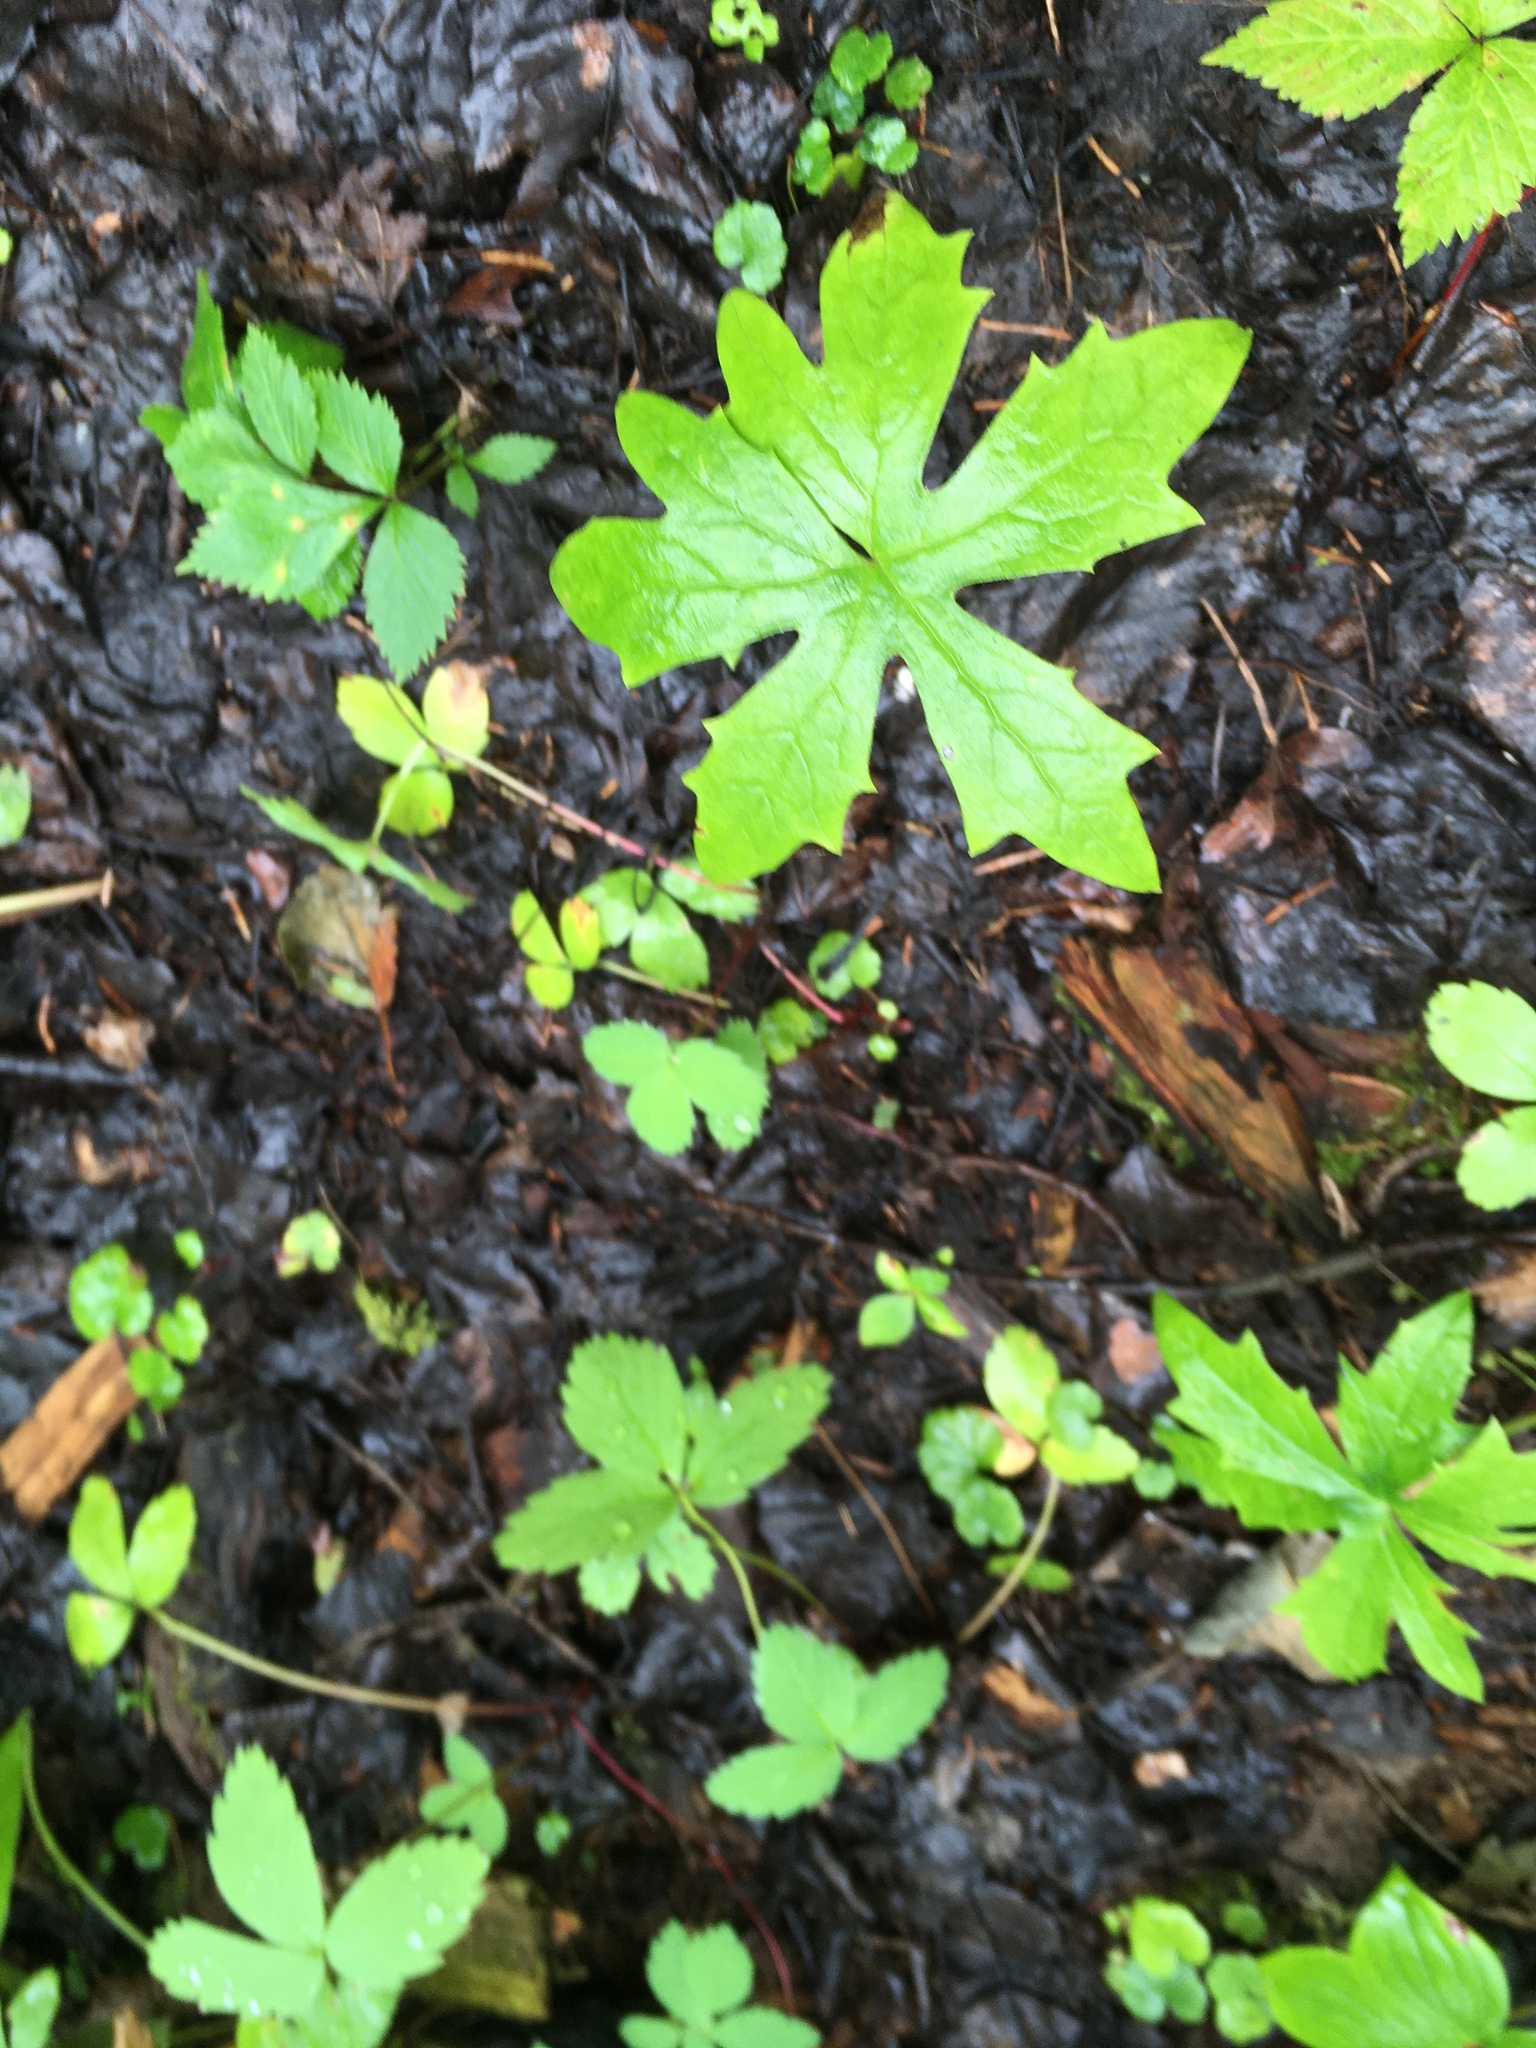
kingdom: Plantae
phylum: Tracheophyta
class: Magnoliopsida
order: Asterales
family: Asteraceae
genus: Petasites
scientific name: Petasites frigidus
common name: Arctic butterbur
